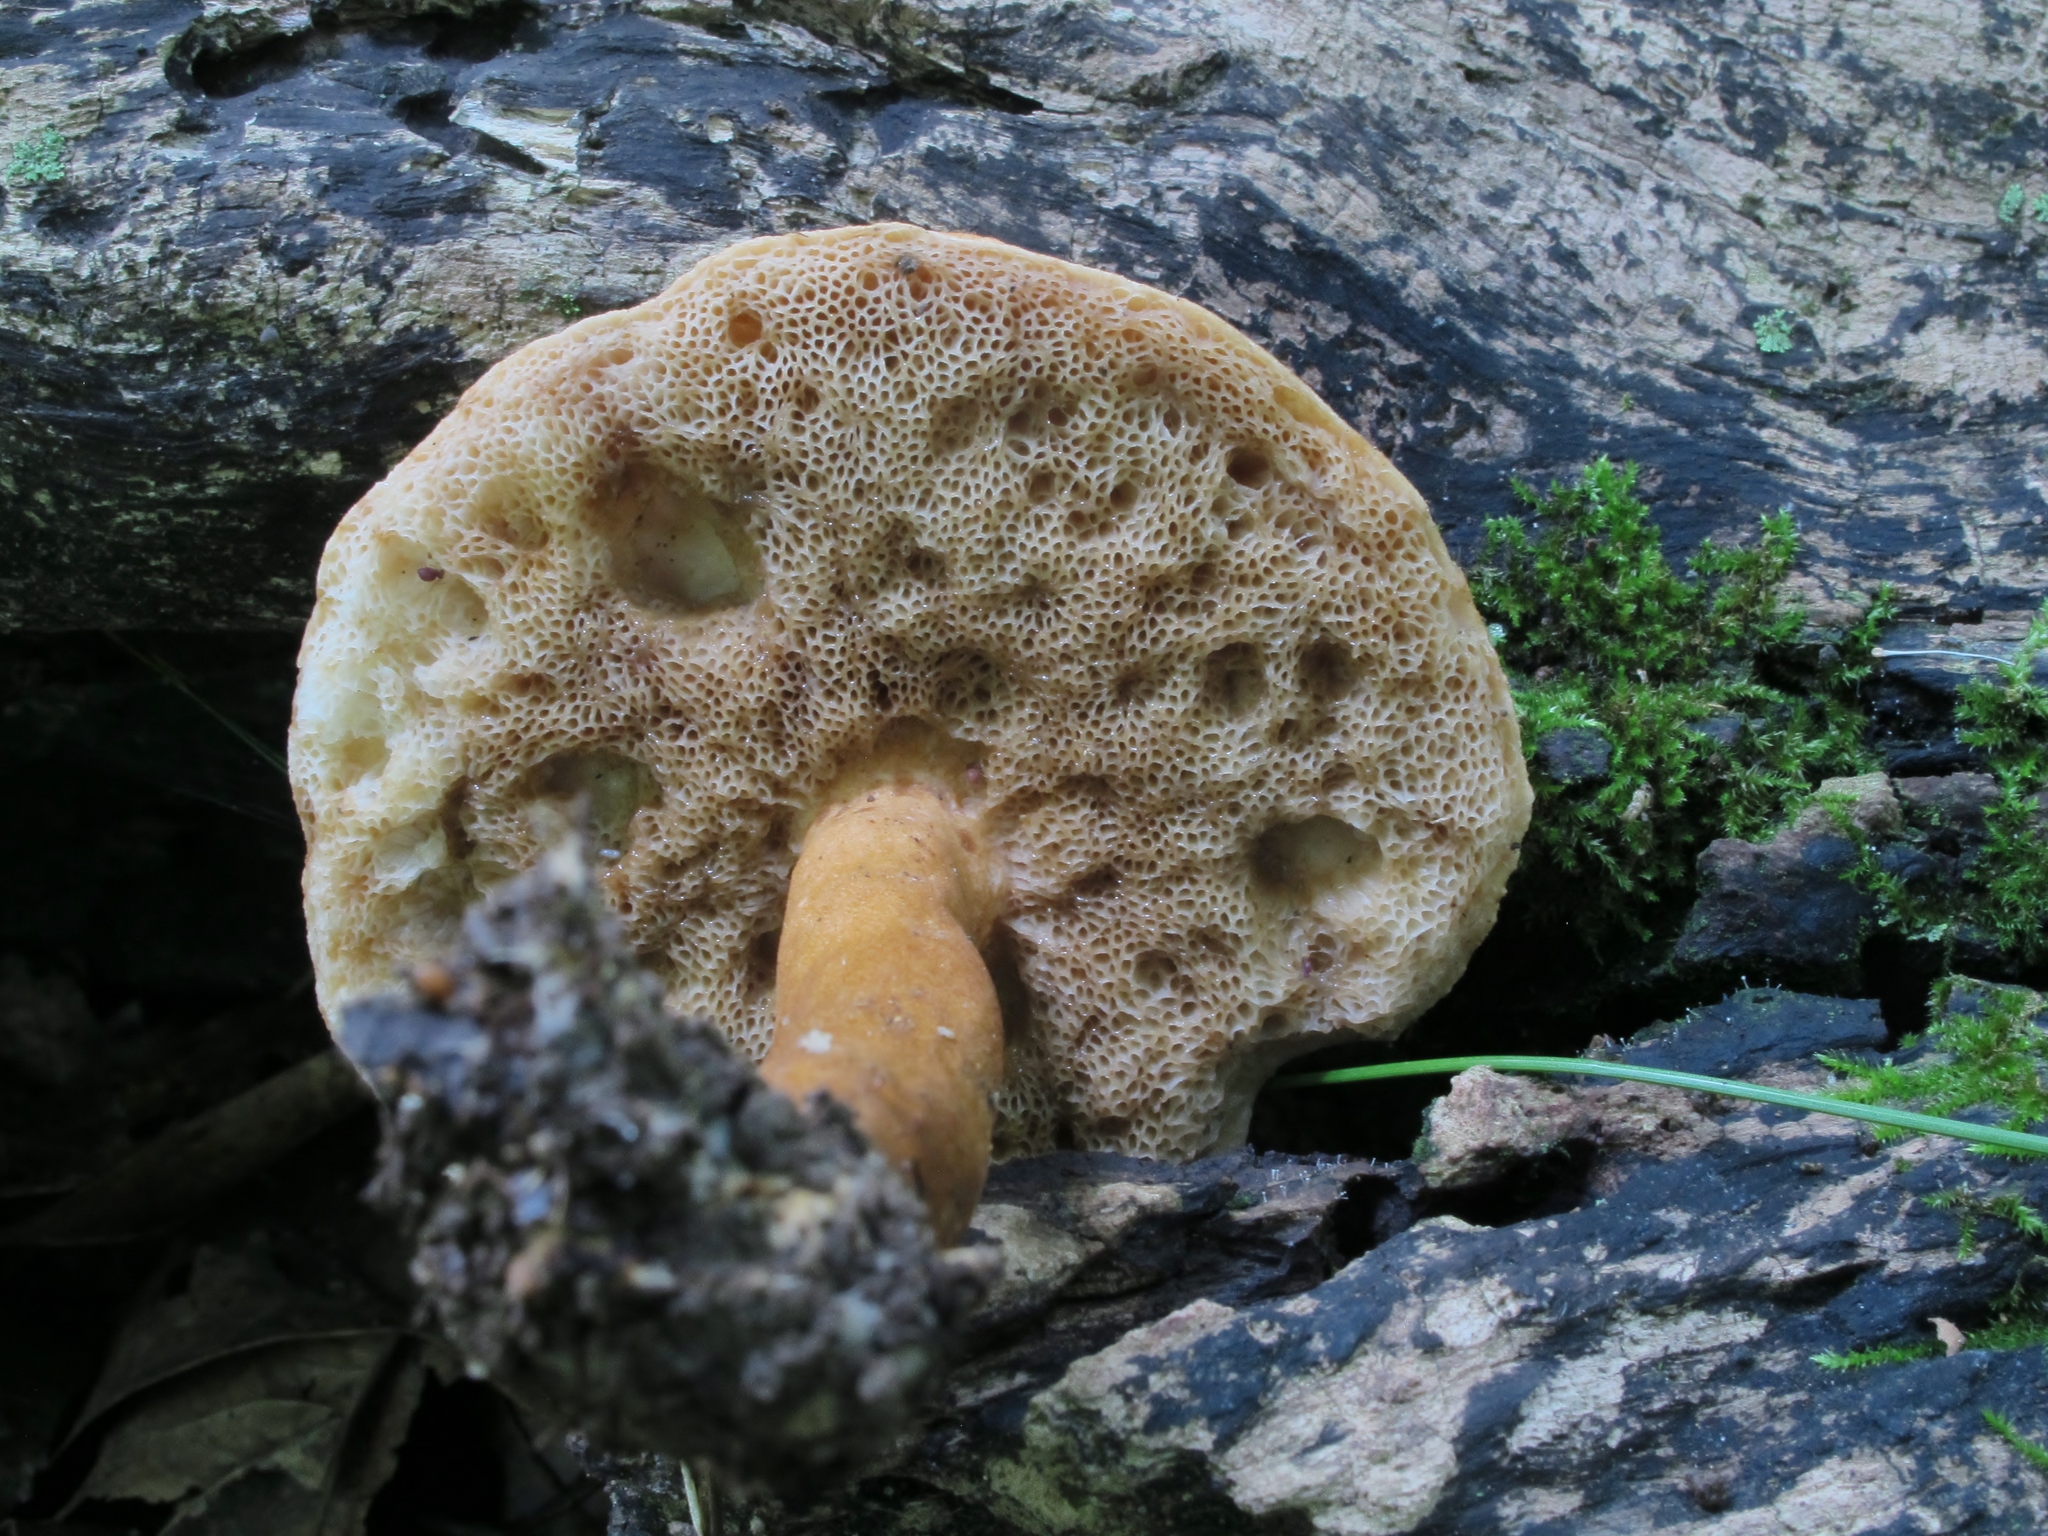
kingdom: Fungi
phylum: Basidiomycota
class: Agaricomycetes
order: Boletales
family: Gyroporaceae
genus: Gyroporus
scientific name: Gyroporus castaneus
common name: Chestnut bolete
